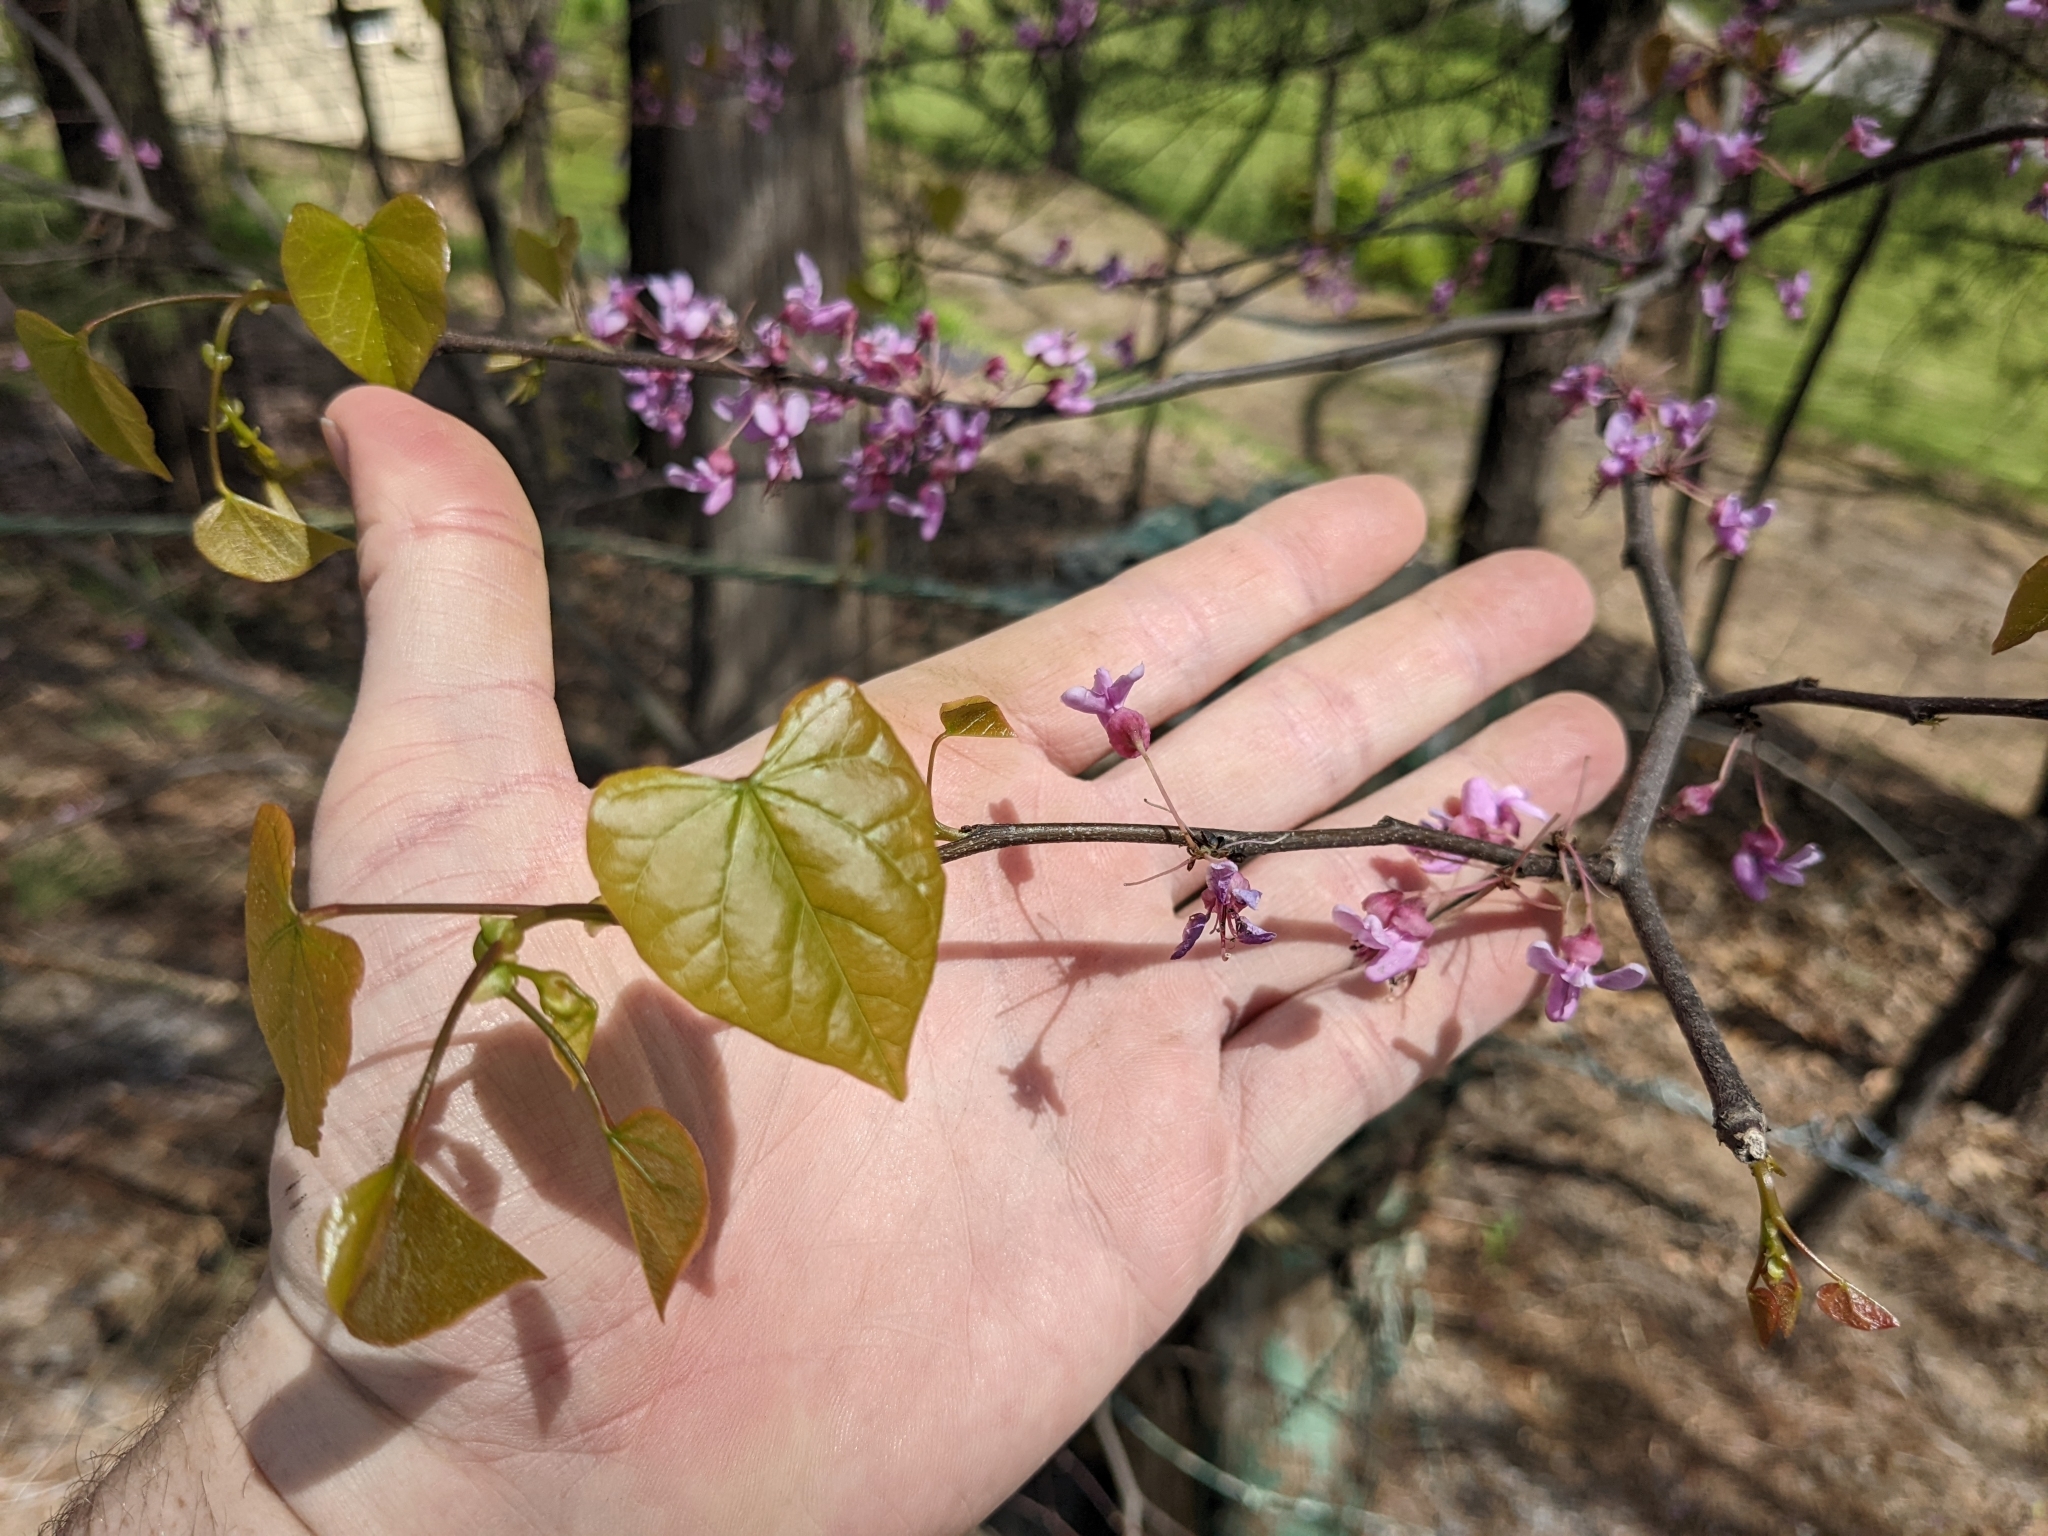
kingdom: Plantae
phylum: Tracheophyta
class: Magnoliopsida
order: Fabales
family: Fabaceae
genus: Cercis
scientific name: Cercis canadensis
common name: Eastern redbud
